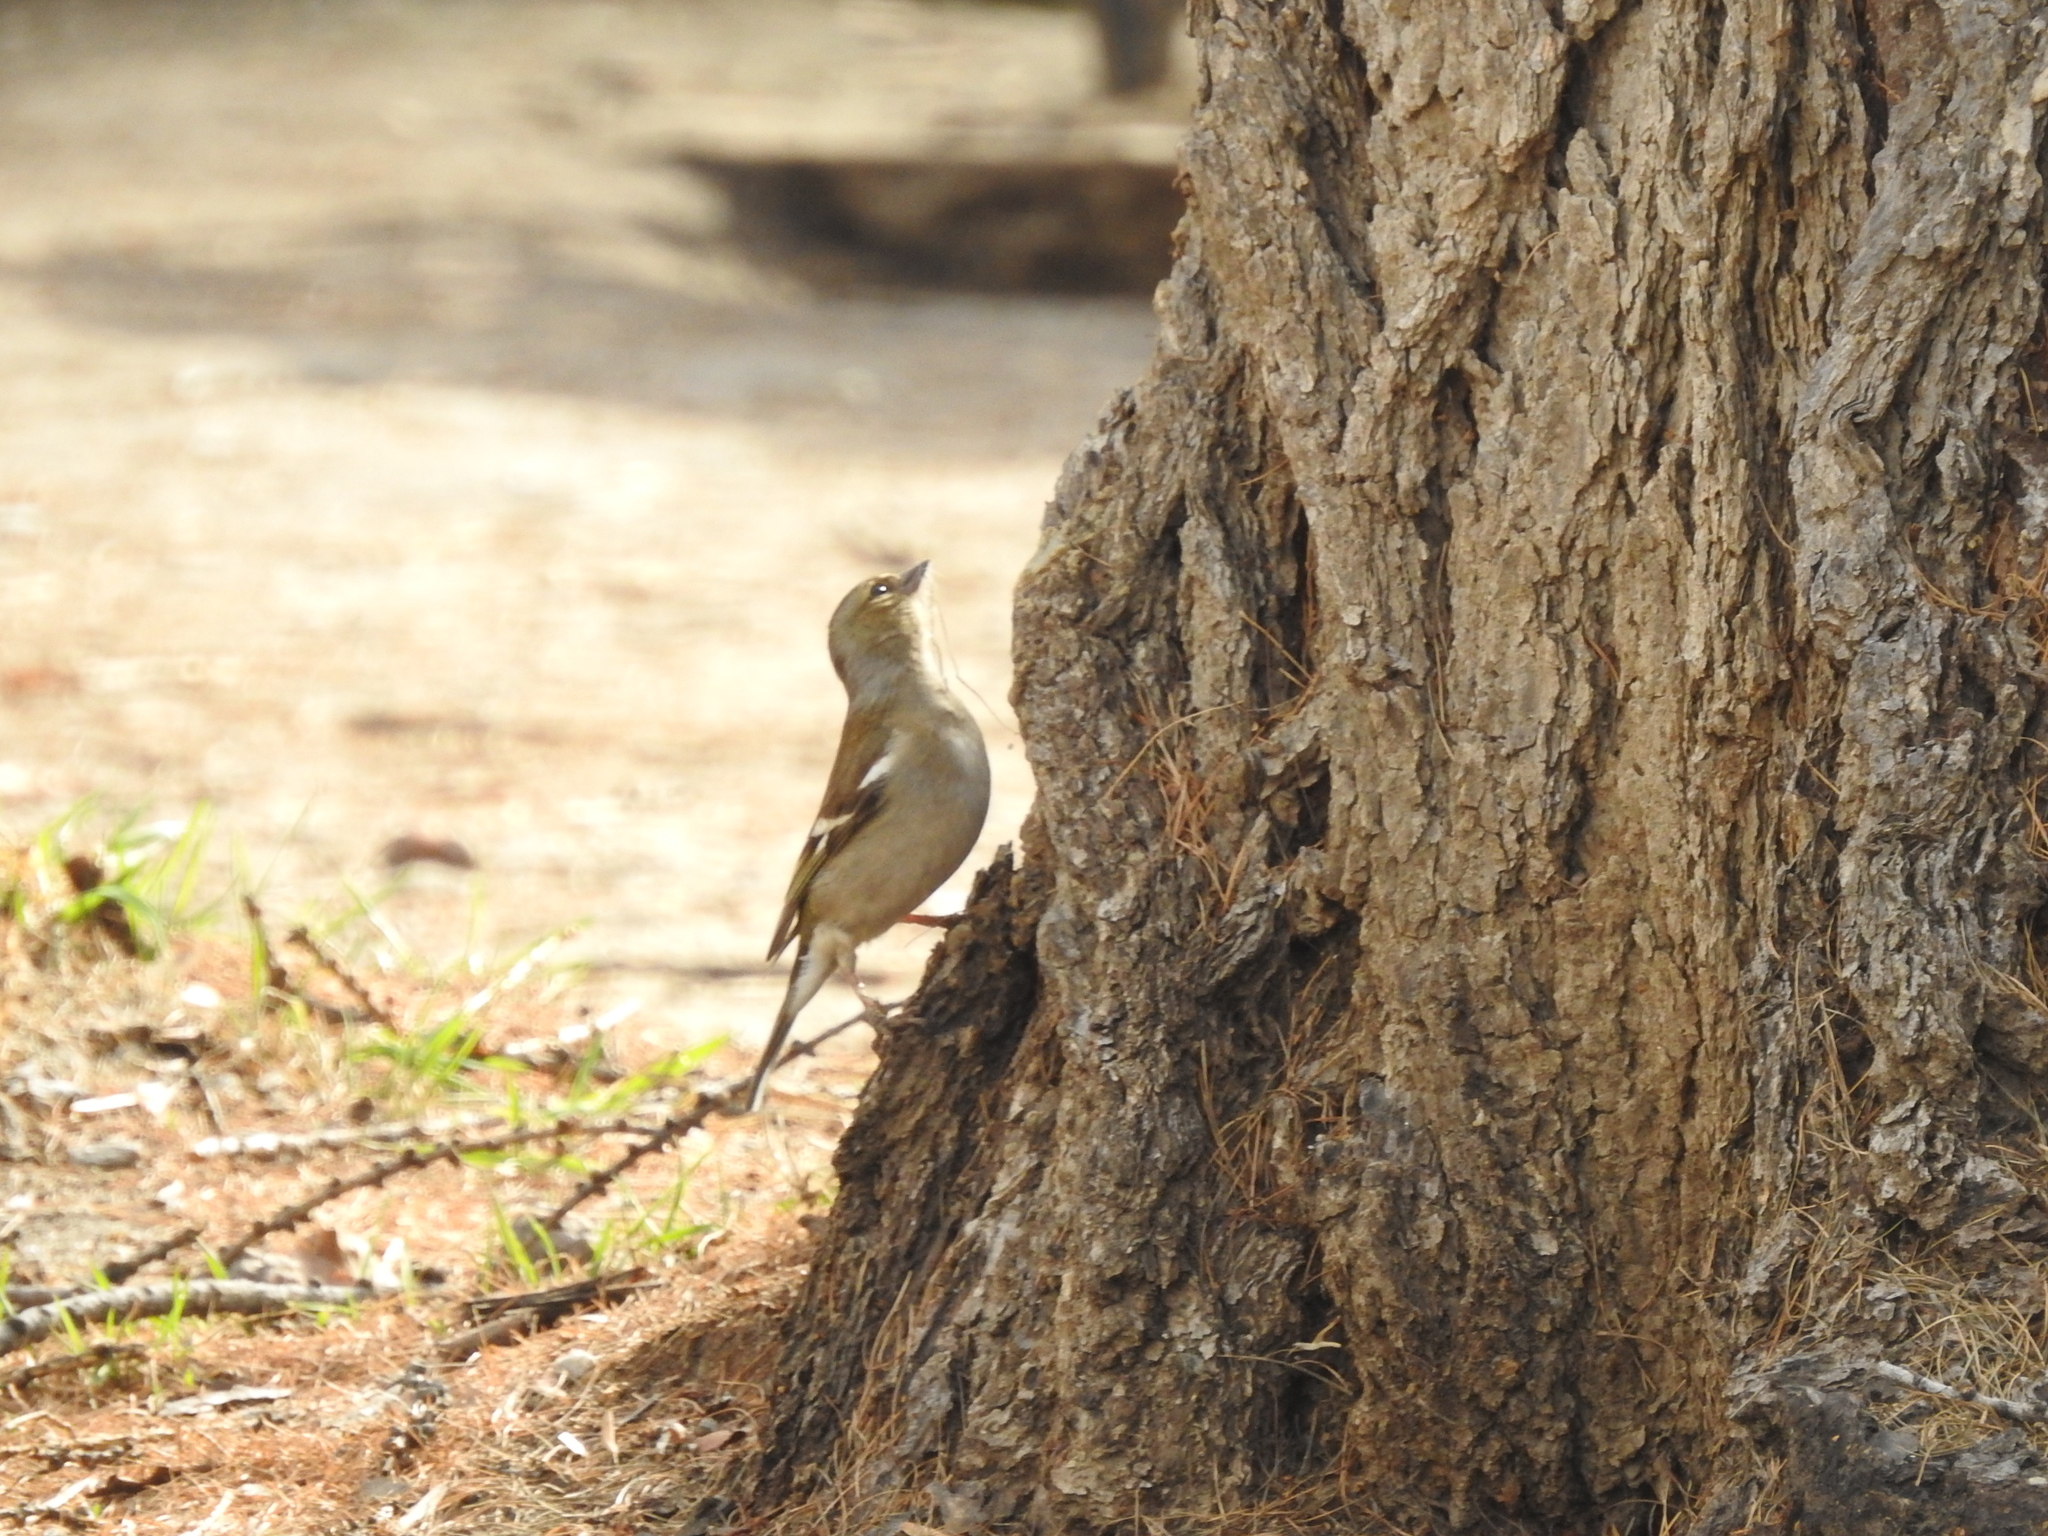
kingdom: Animalia
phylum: Chordata
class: Aves
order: Passeriformes
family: Fringillidae
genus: Fringilla
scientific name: Fringilla coelebs
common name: Common chaffinch
